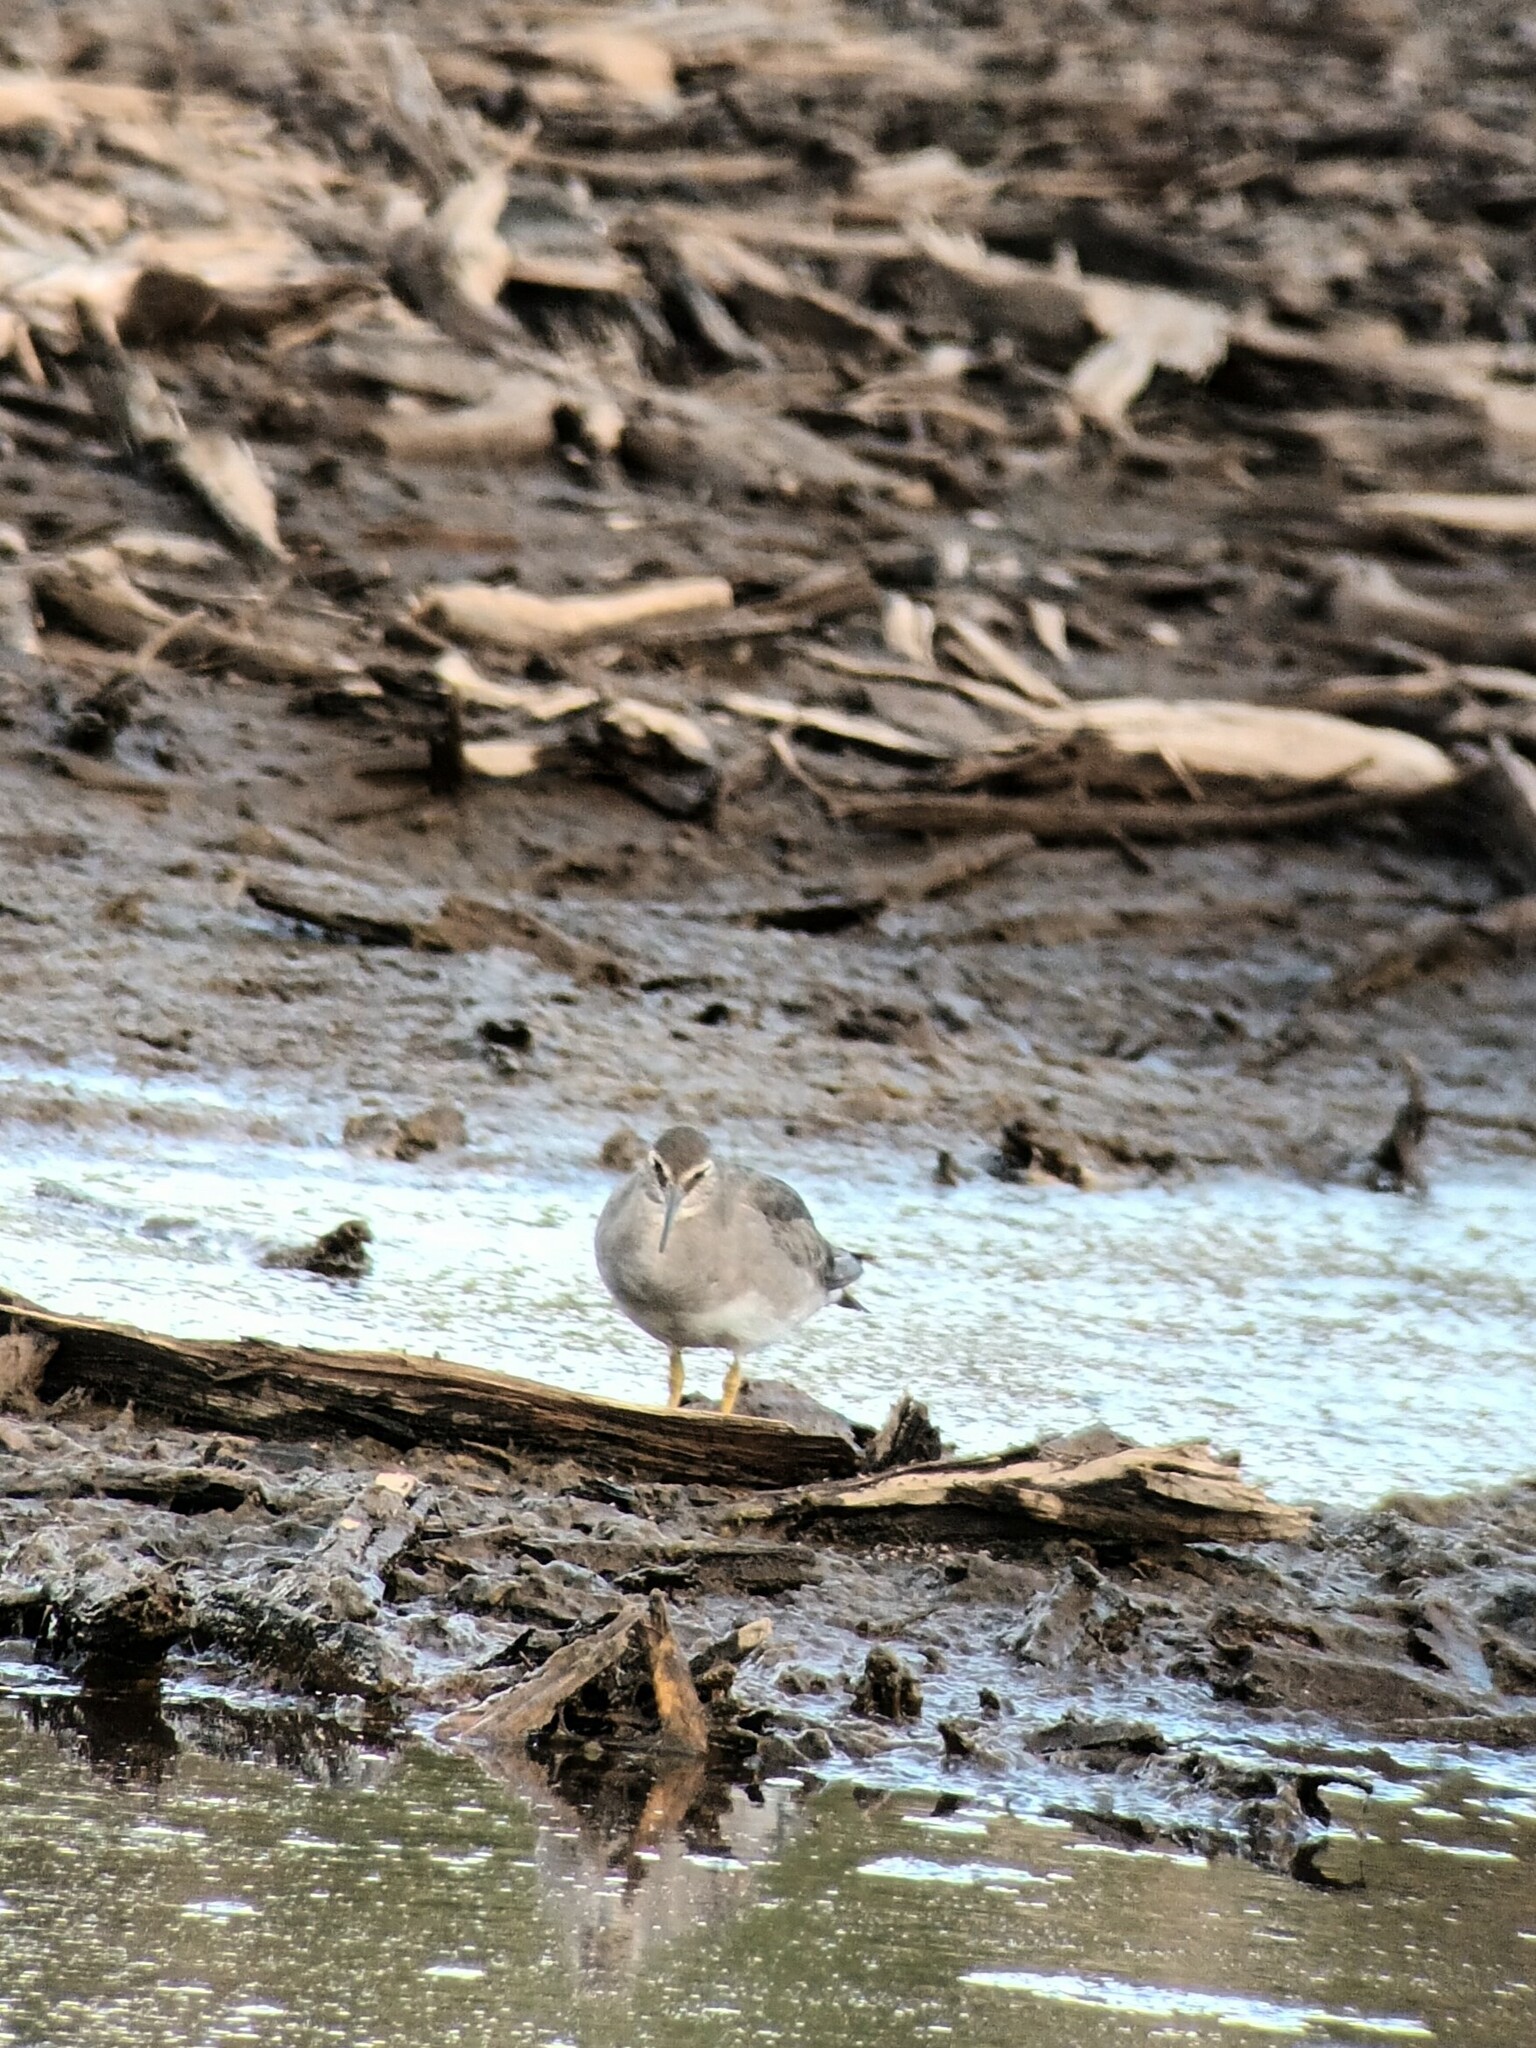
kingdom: Animalia
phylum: Chordata
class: Aves
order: Charadriiformes
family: Scolopacidae
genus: Tringa
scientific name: Tringa incana
